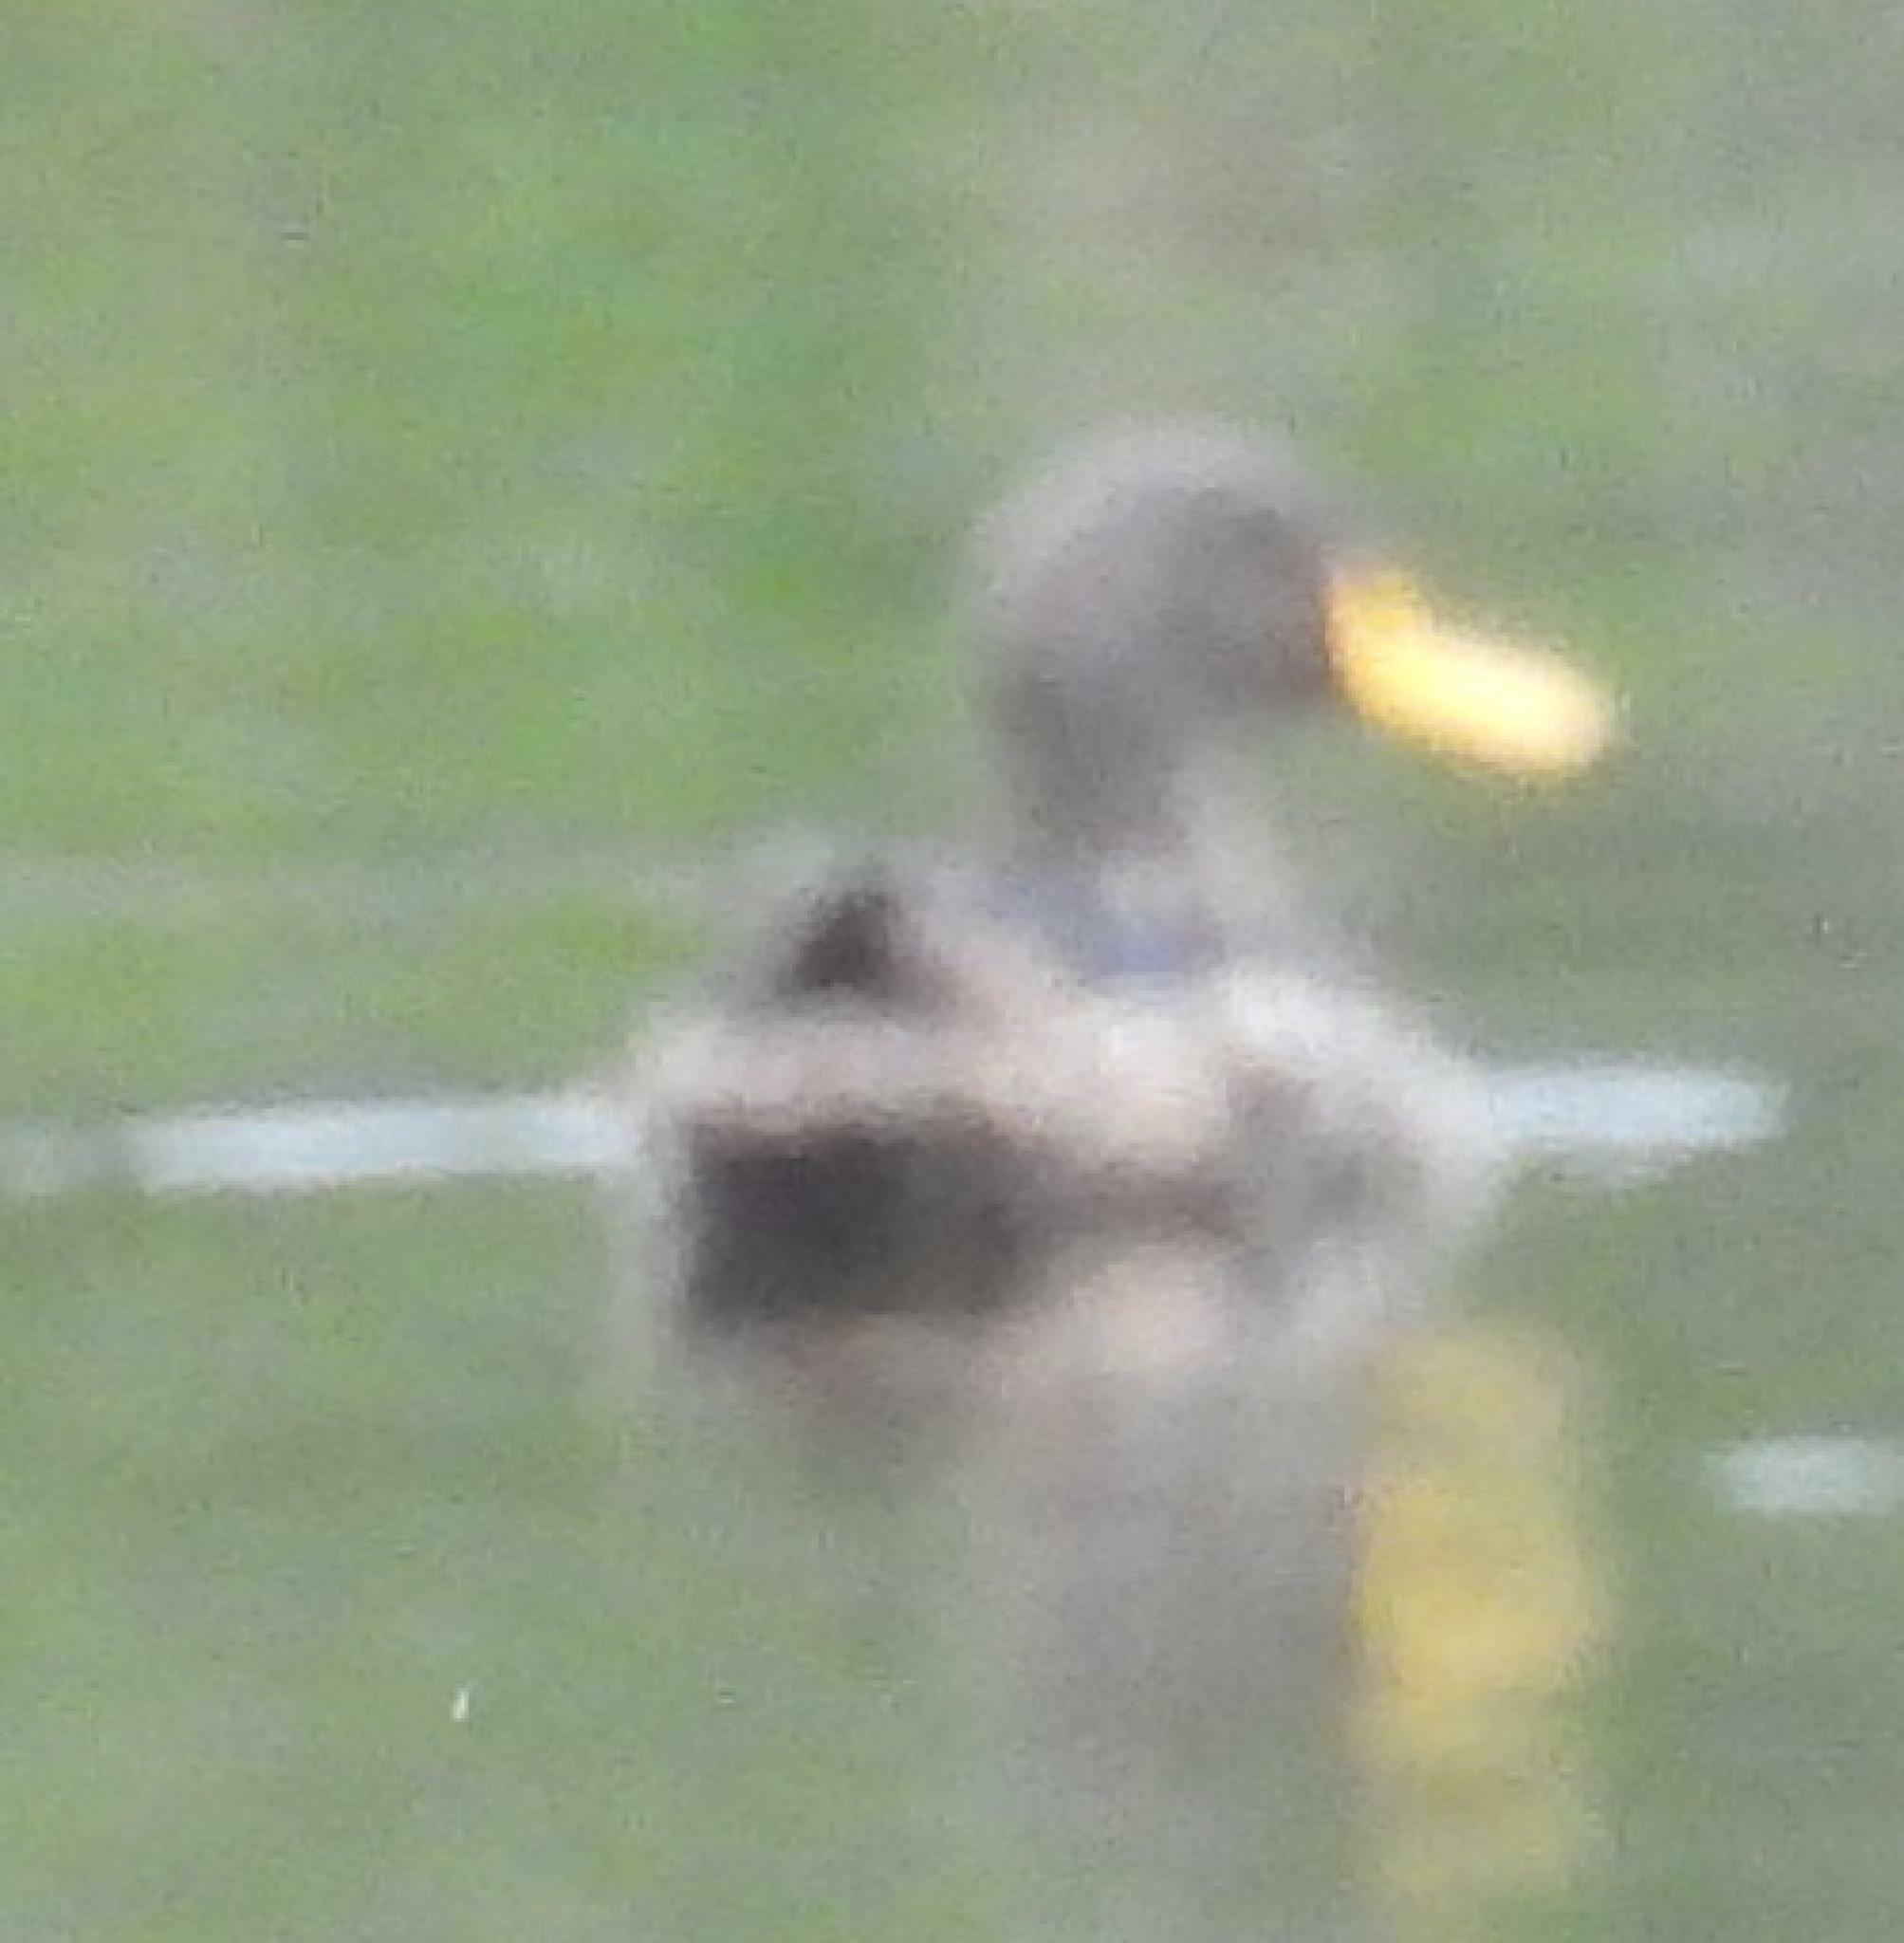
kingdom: Animalia
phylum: Chordata
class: Aves
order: Anseriformes
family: Anatidae
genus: Anas
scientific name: Anas undulata
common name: Yellow-billed duck
